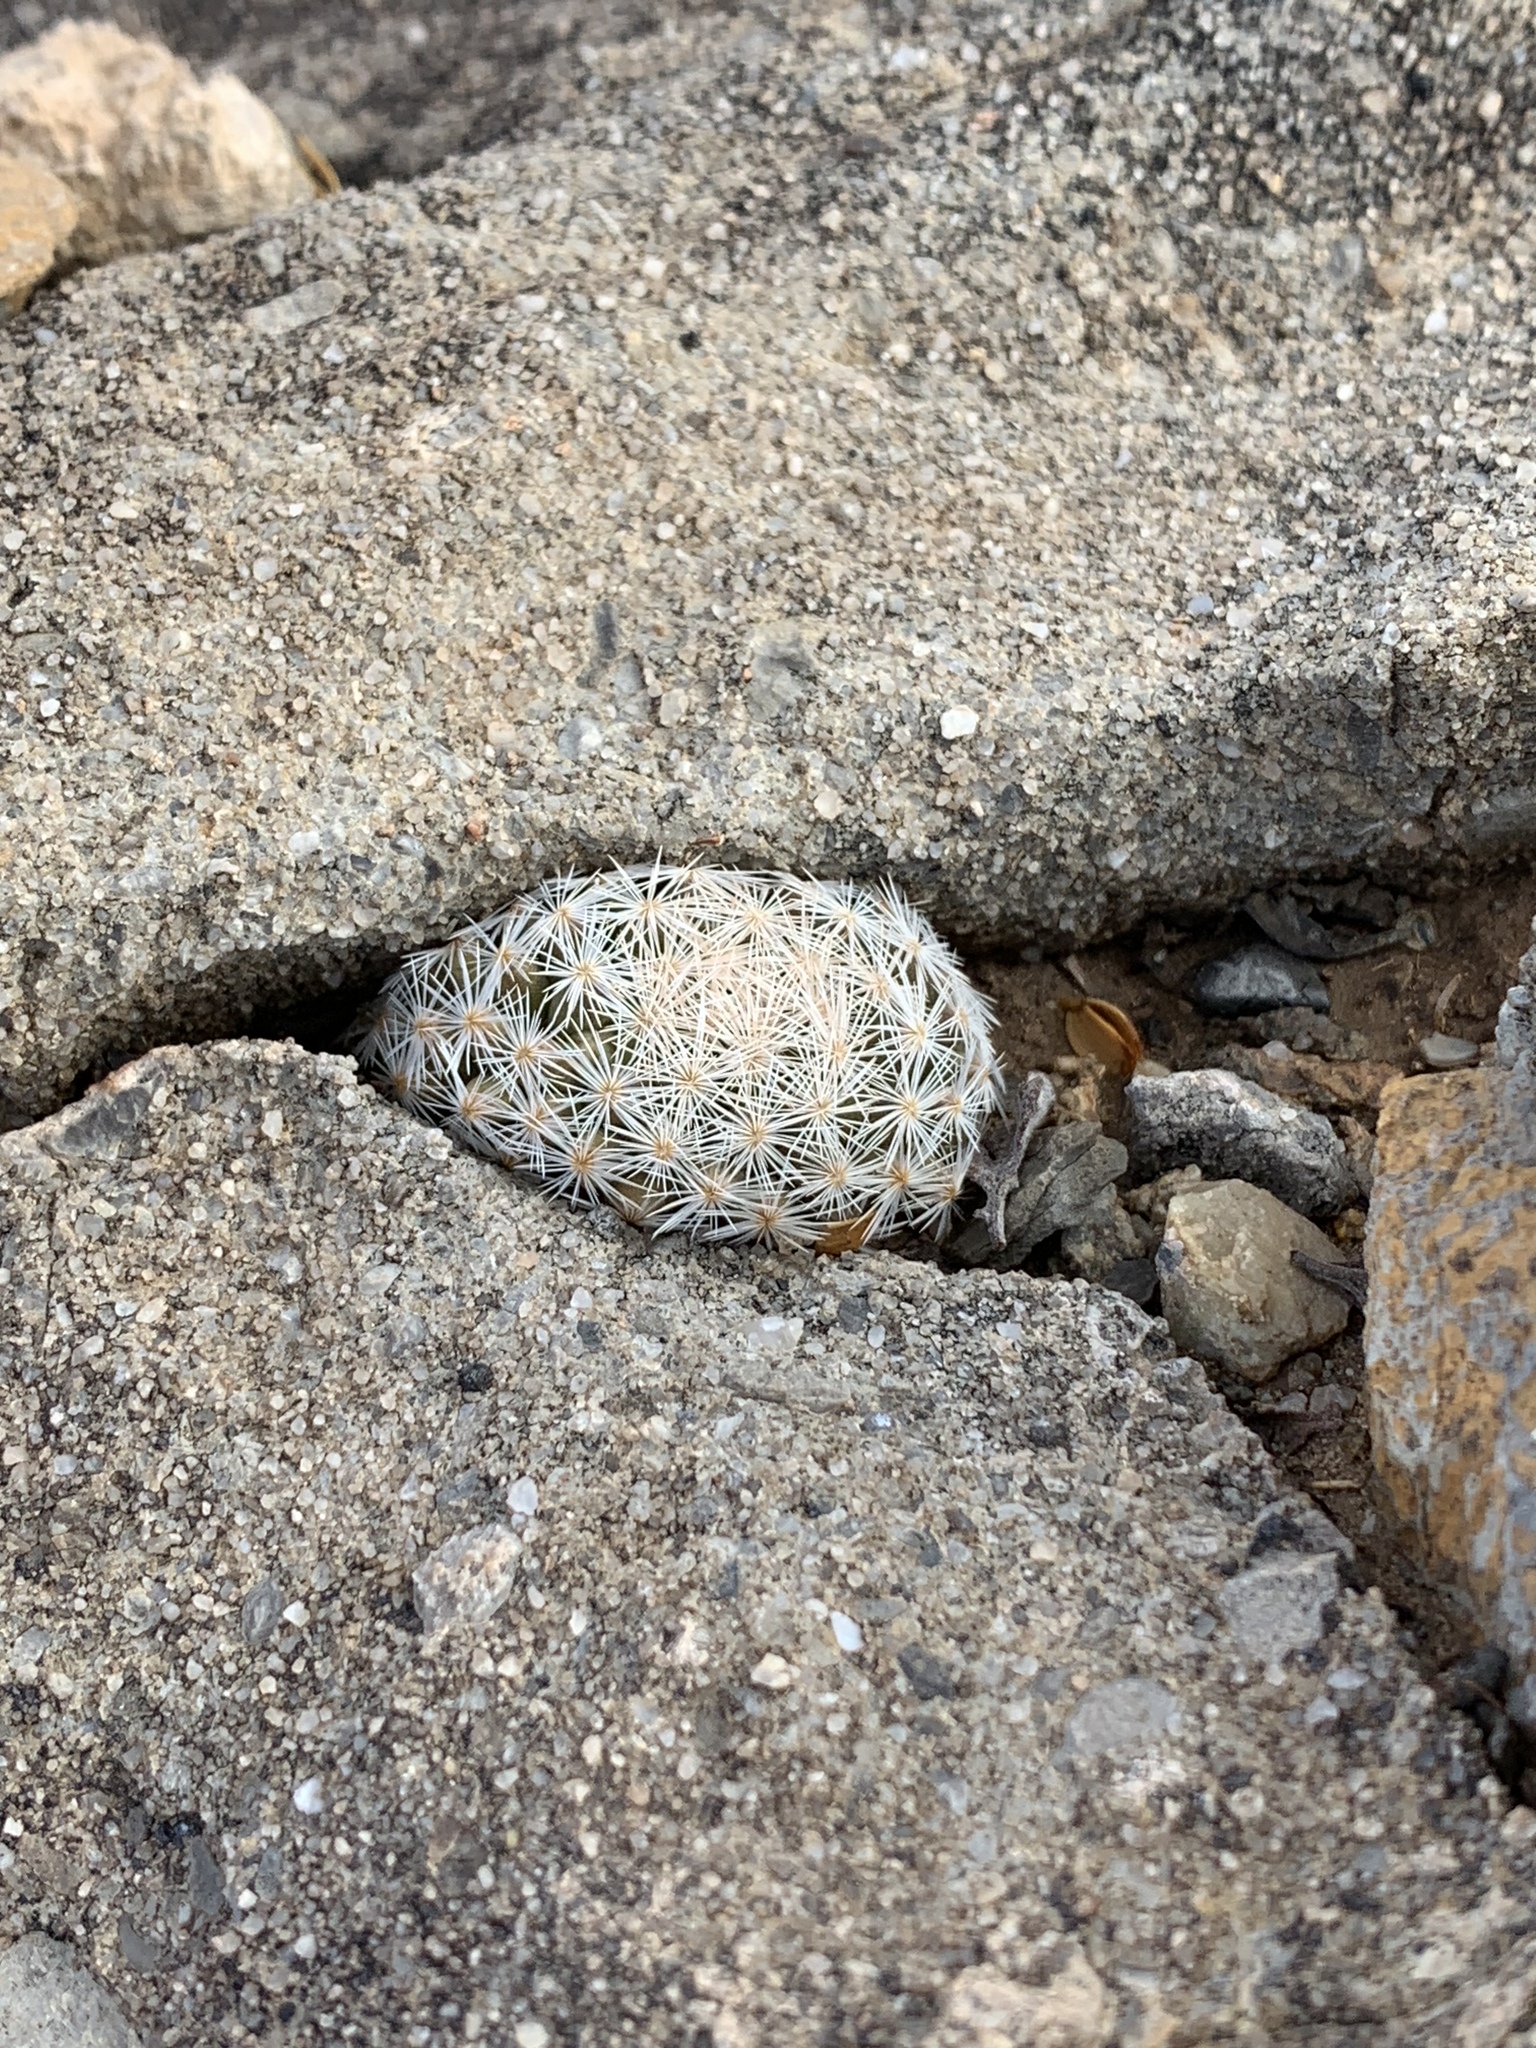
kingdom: Plantae
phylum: Tracheophyta
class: Magnoliopsida
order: Caryophyllales
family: Cactaceae
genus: Mammillaria
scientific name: Mammillaria lasiacantha
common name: Lace-spine nipple cactus
